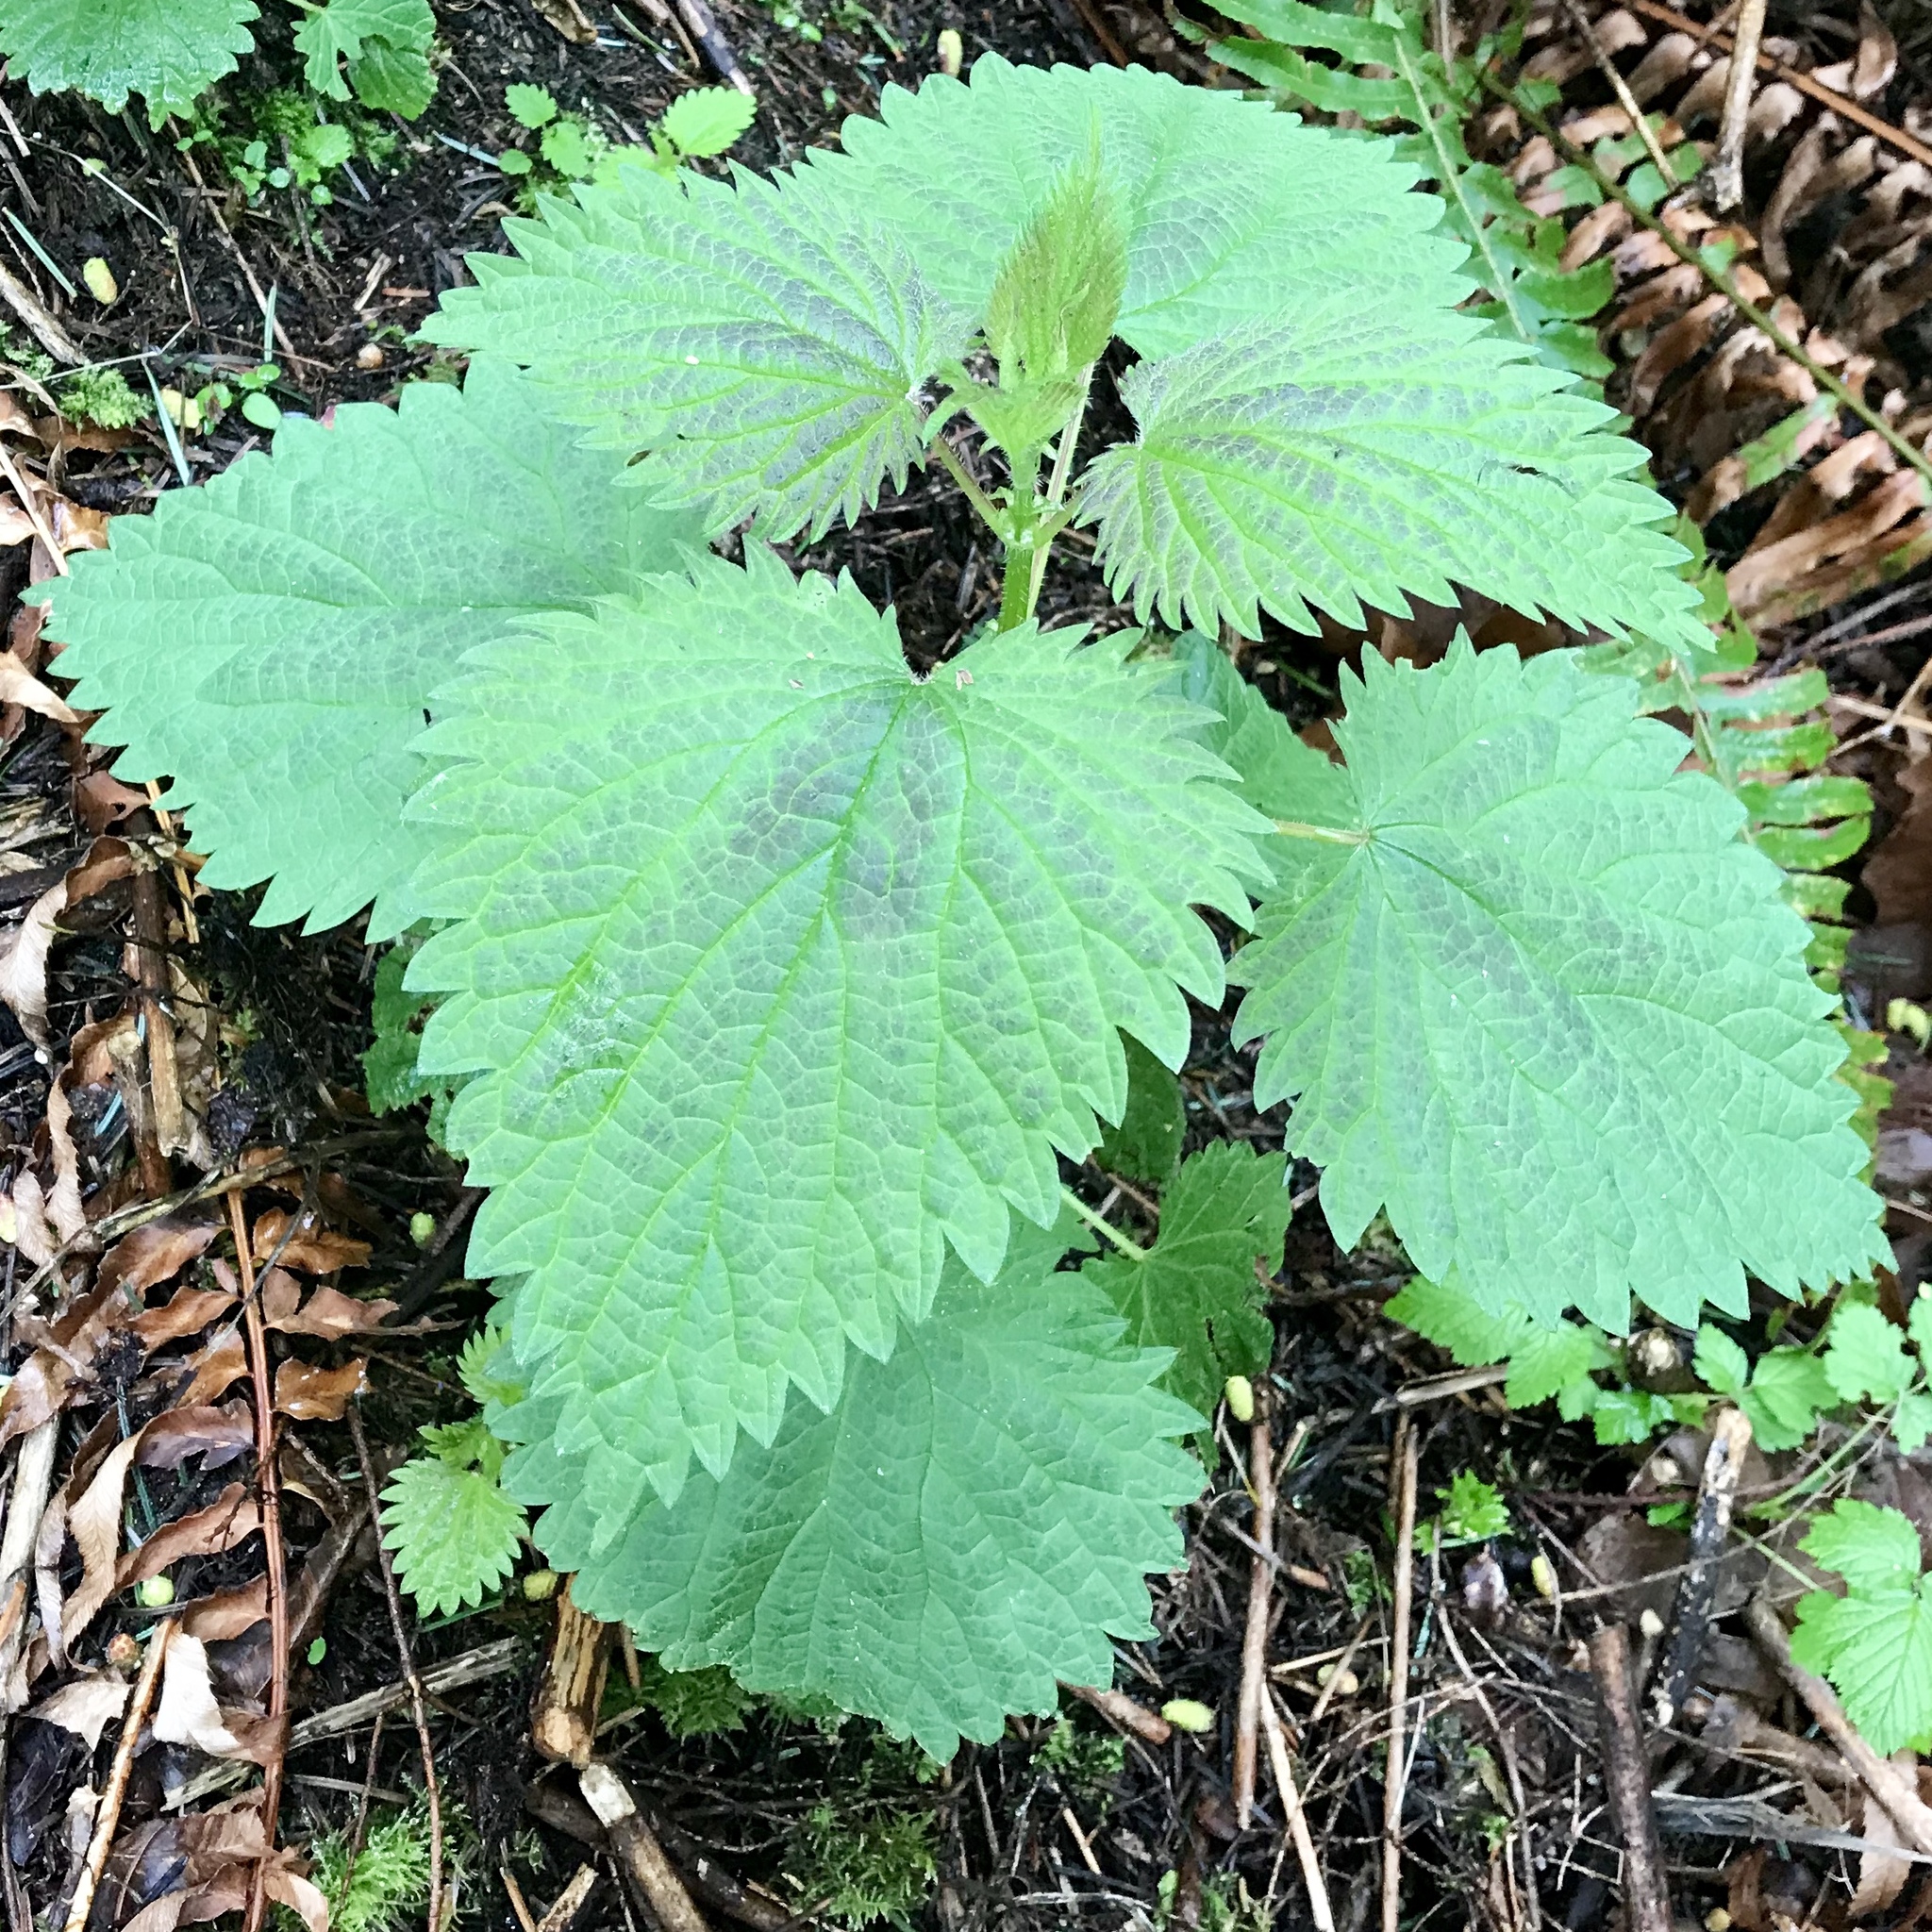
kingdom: Plantae
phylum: Tracheophyta
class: Magnoliopsida
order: Rosales
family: Urticaceae
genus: Urtica
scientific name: Urtica dioica
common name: Common nettle
